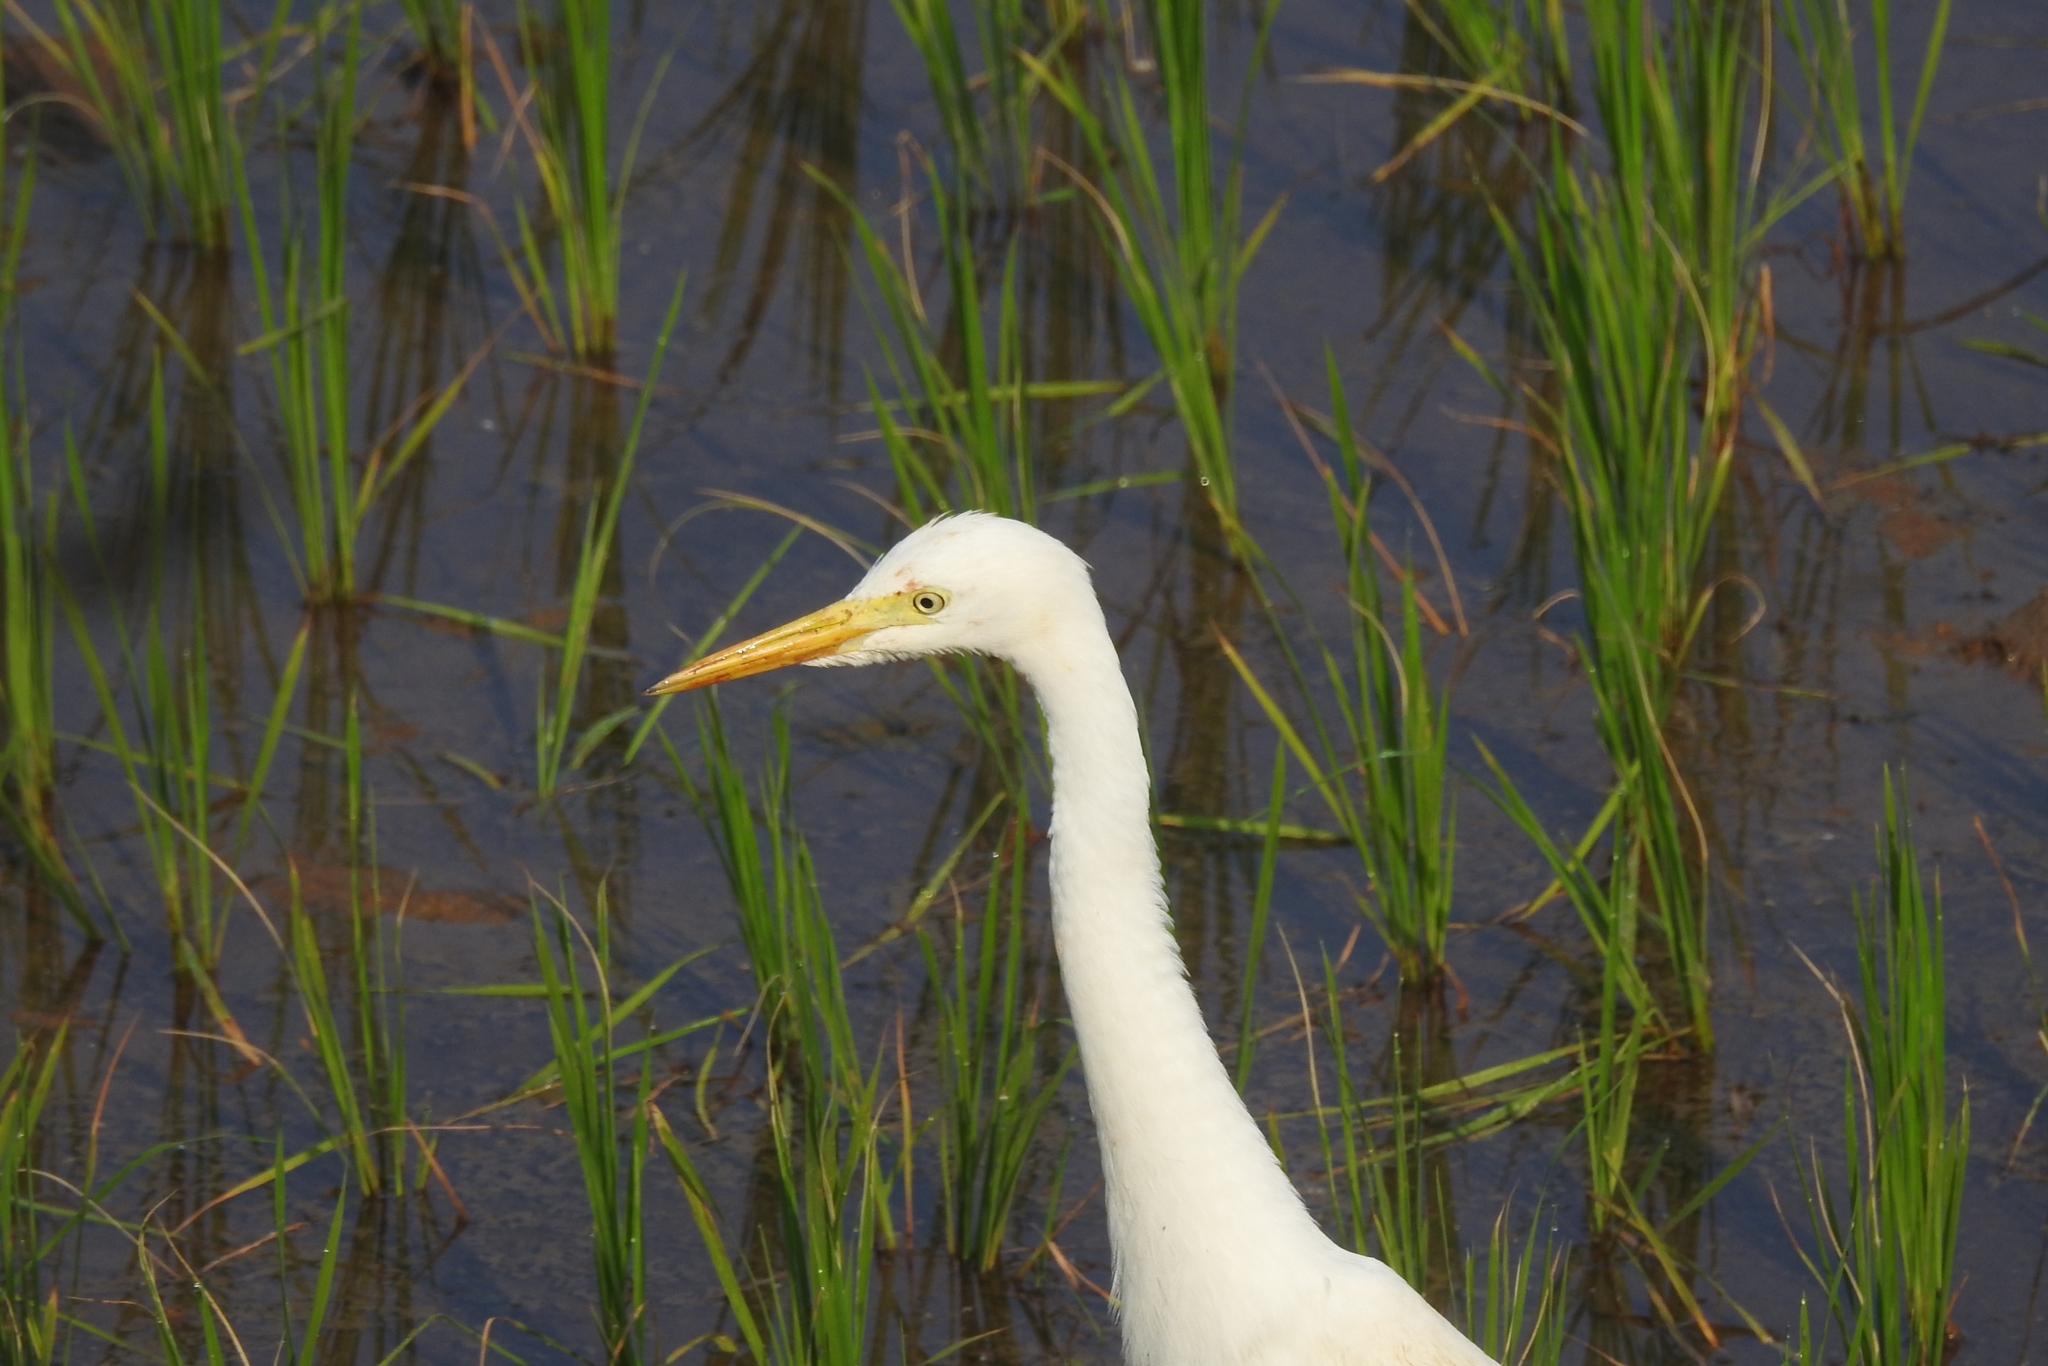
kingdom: Animalia
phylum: Chordata
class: Aves
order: Pelecaniformes
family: Ardeidae
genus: Bubulcus
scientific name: Bubulcus coromandus
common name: Eastern cattle egret
